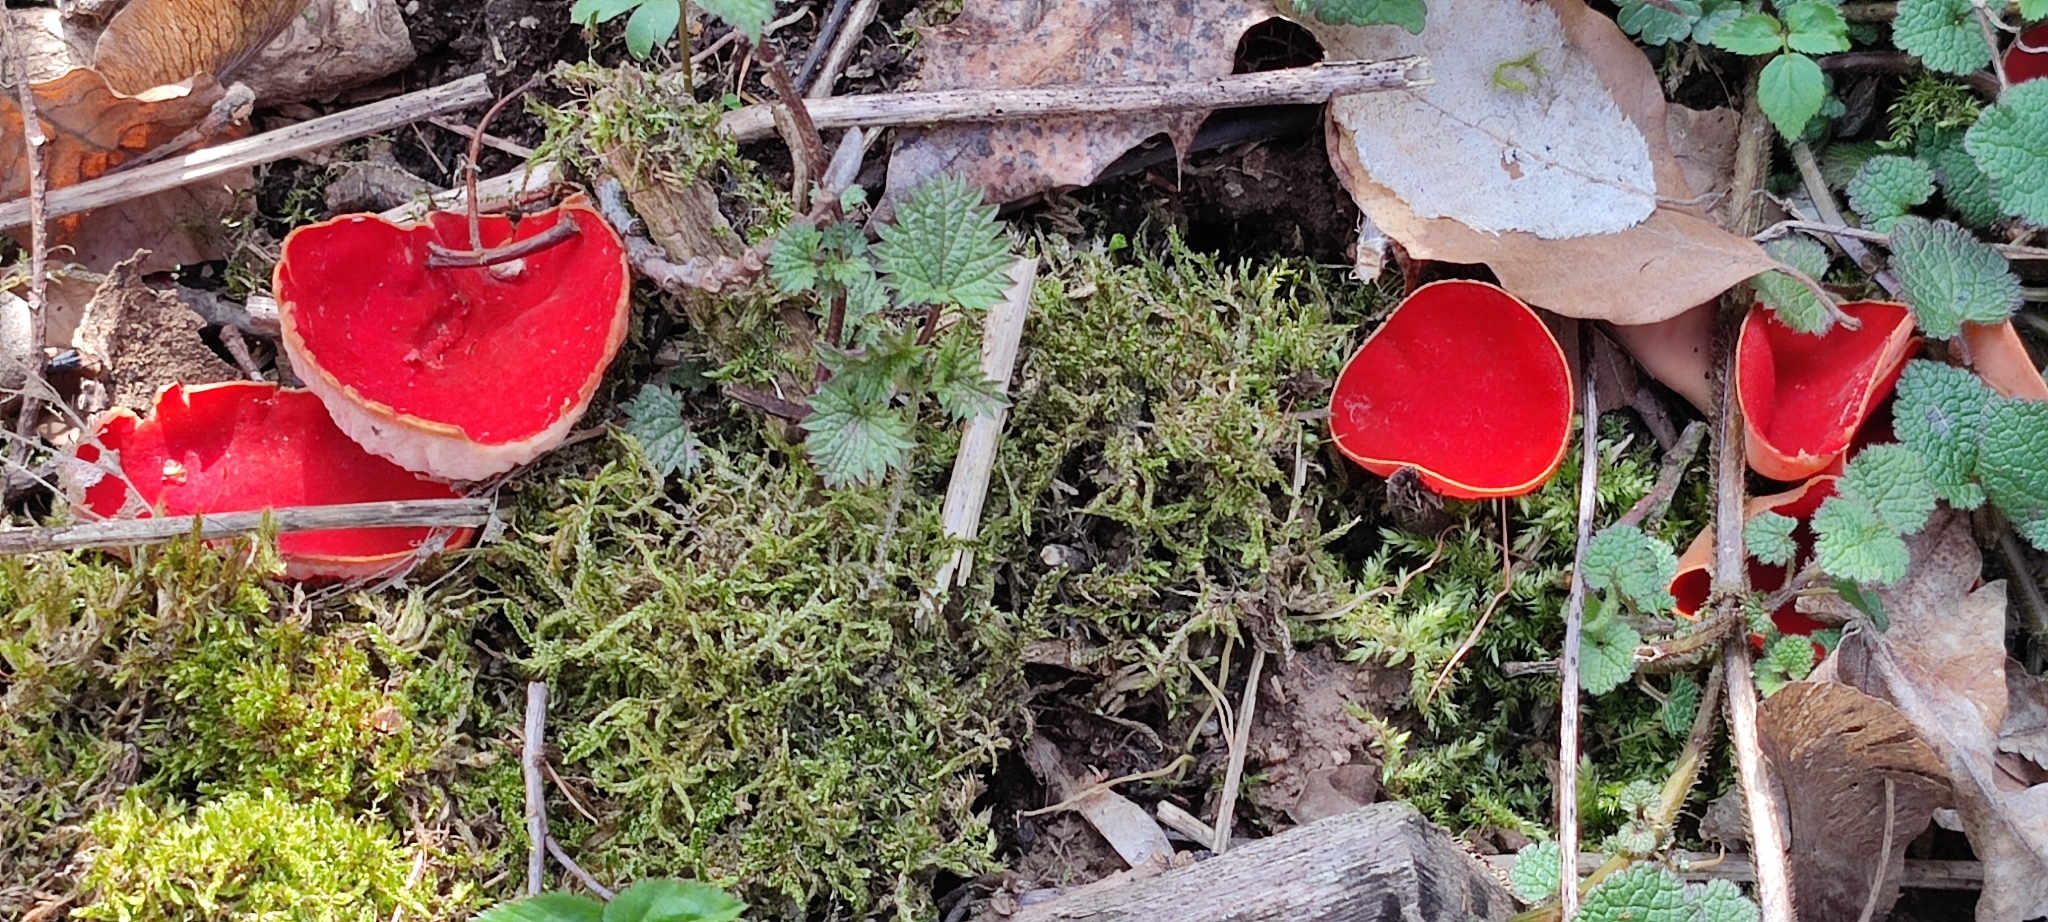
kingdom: Fungi
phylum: Ascomycota
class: Pezizomycetes
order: Pezizales
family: Sarcoscyphaceae
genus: Sarcoscypha
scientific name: Sarcoscypha
